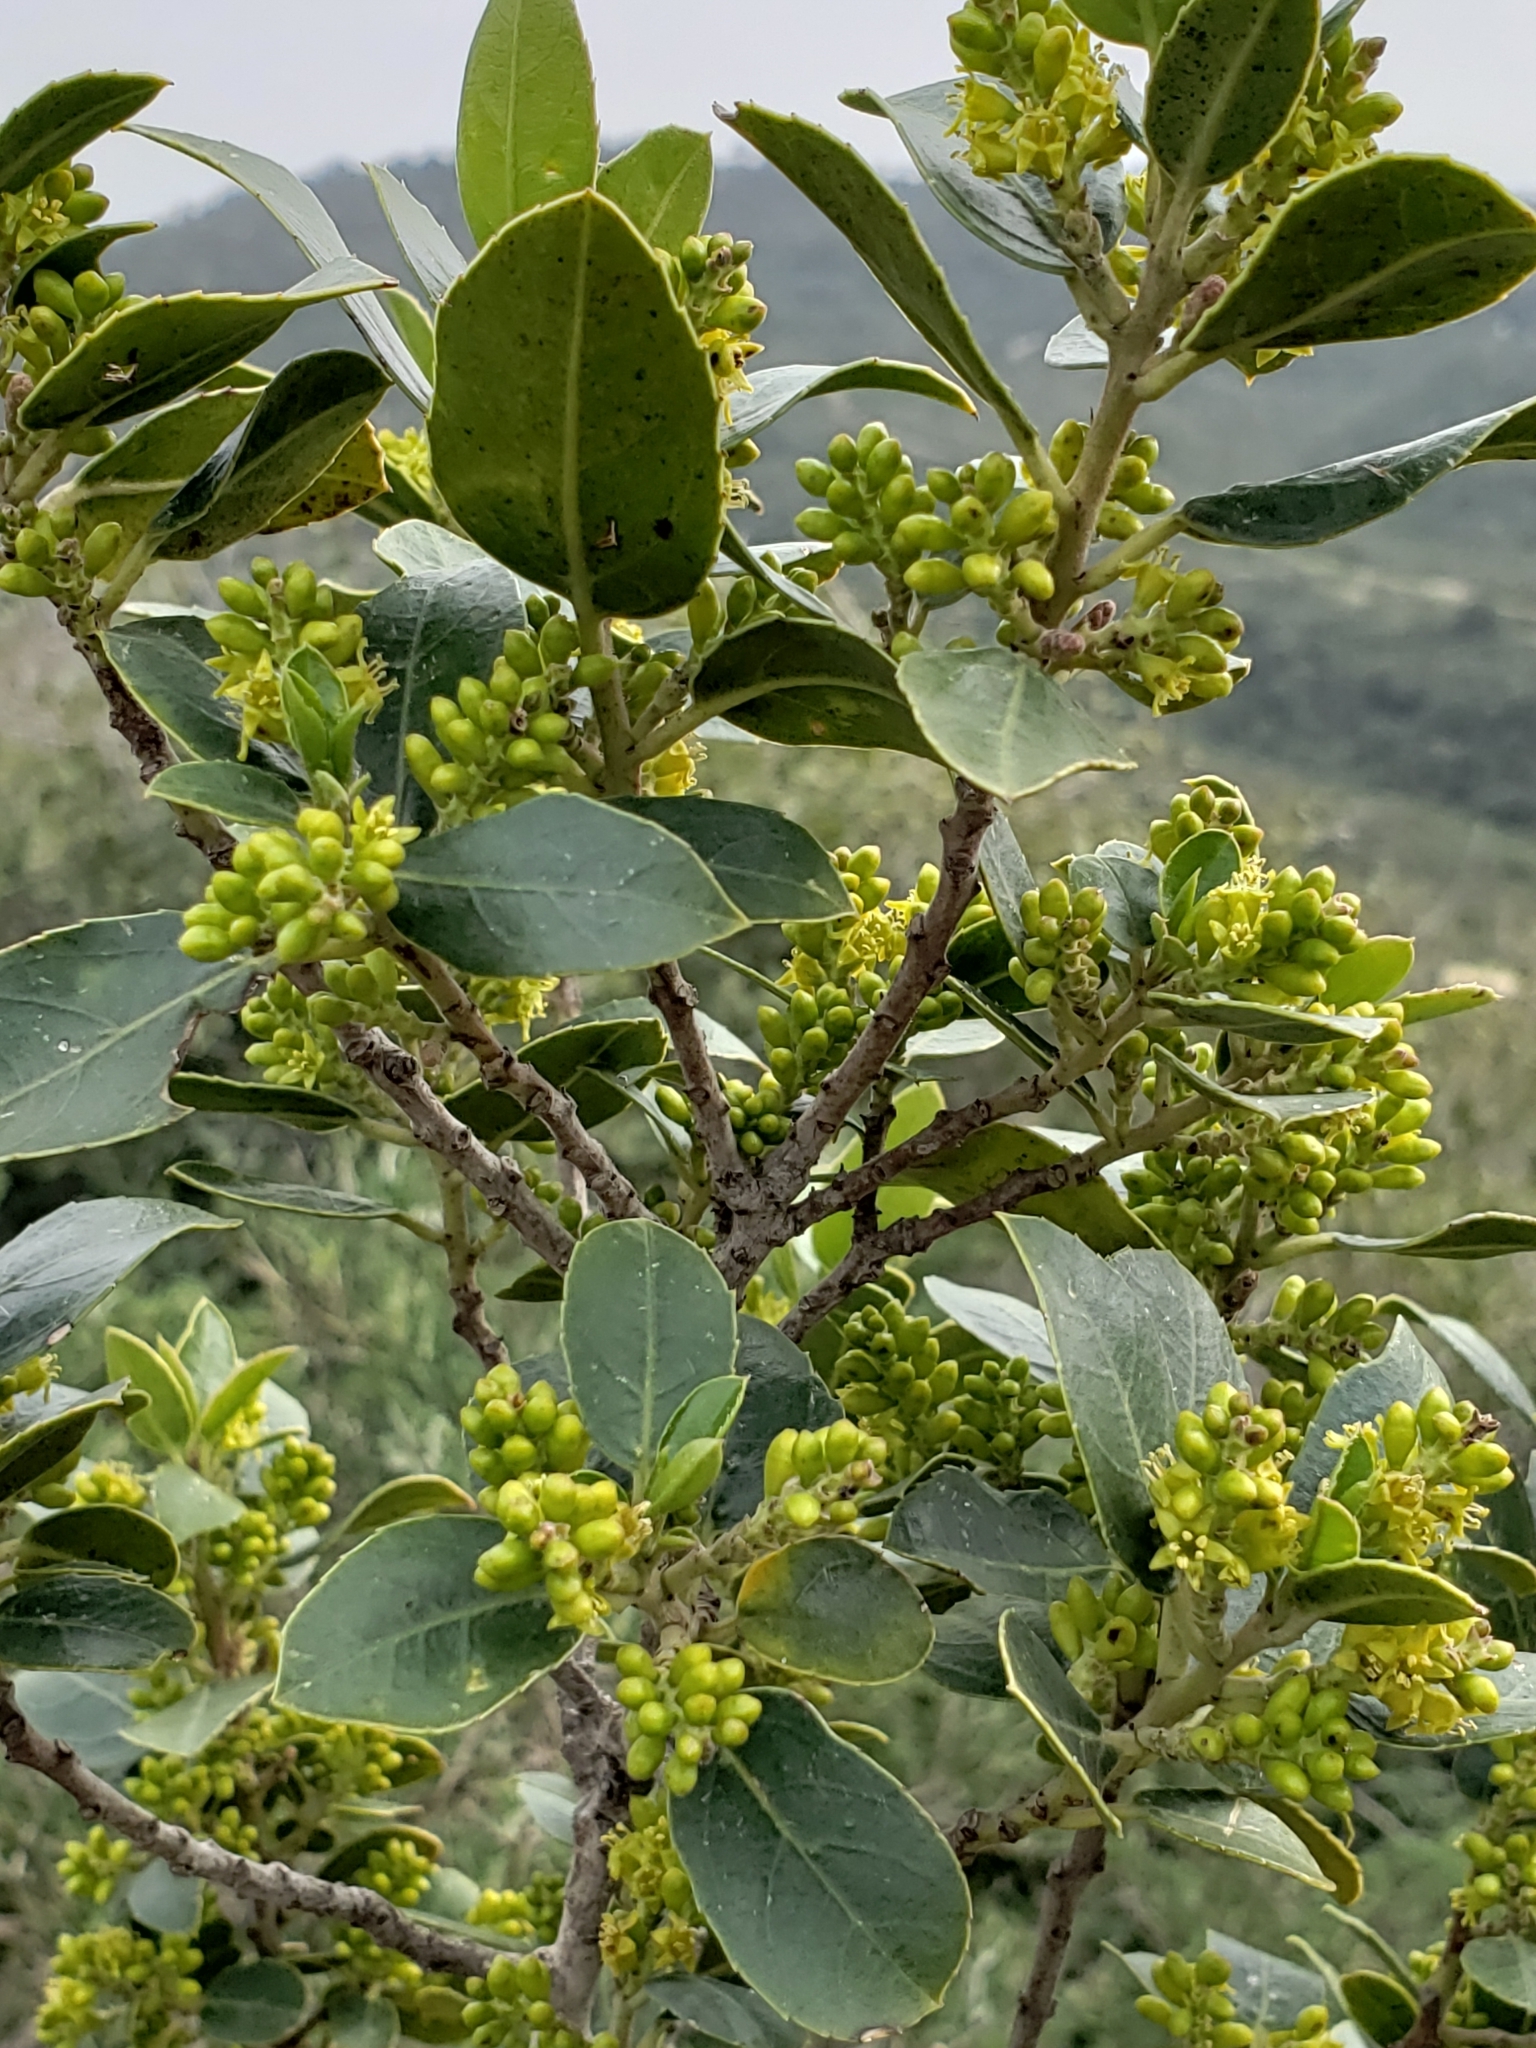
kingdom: Plantae
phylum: Tracheophyta
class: Magnoliopsida
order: Rosales
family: Rhamnaceae
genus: Rhamnus
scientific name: Rhamnus alaternus
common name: Mediterranean buckthorn
